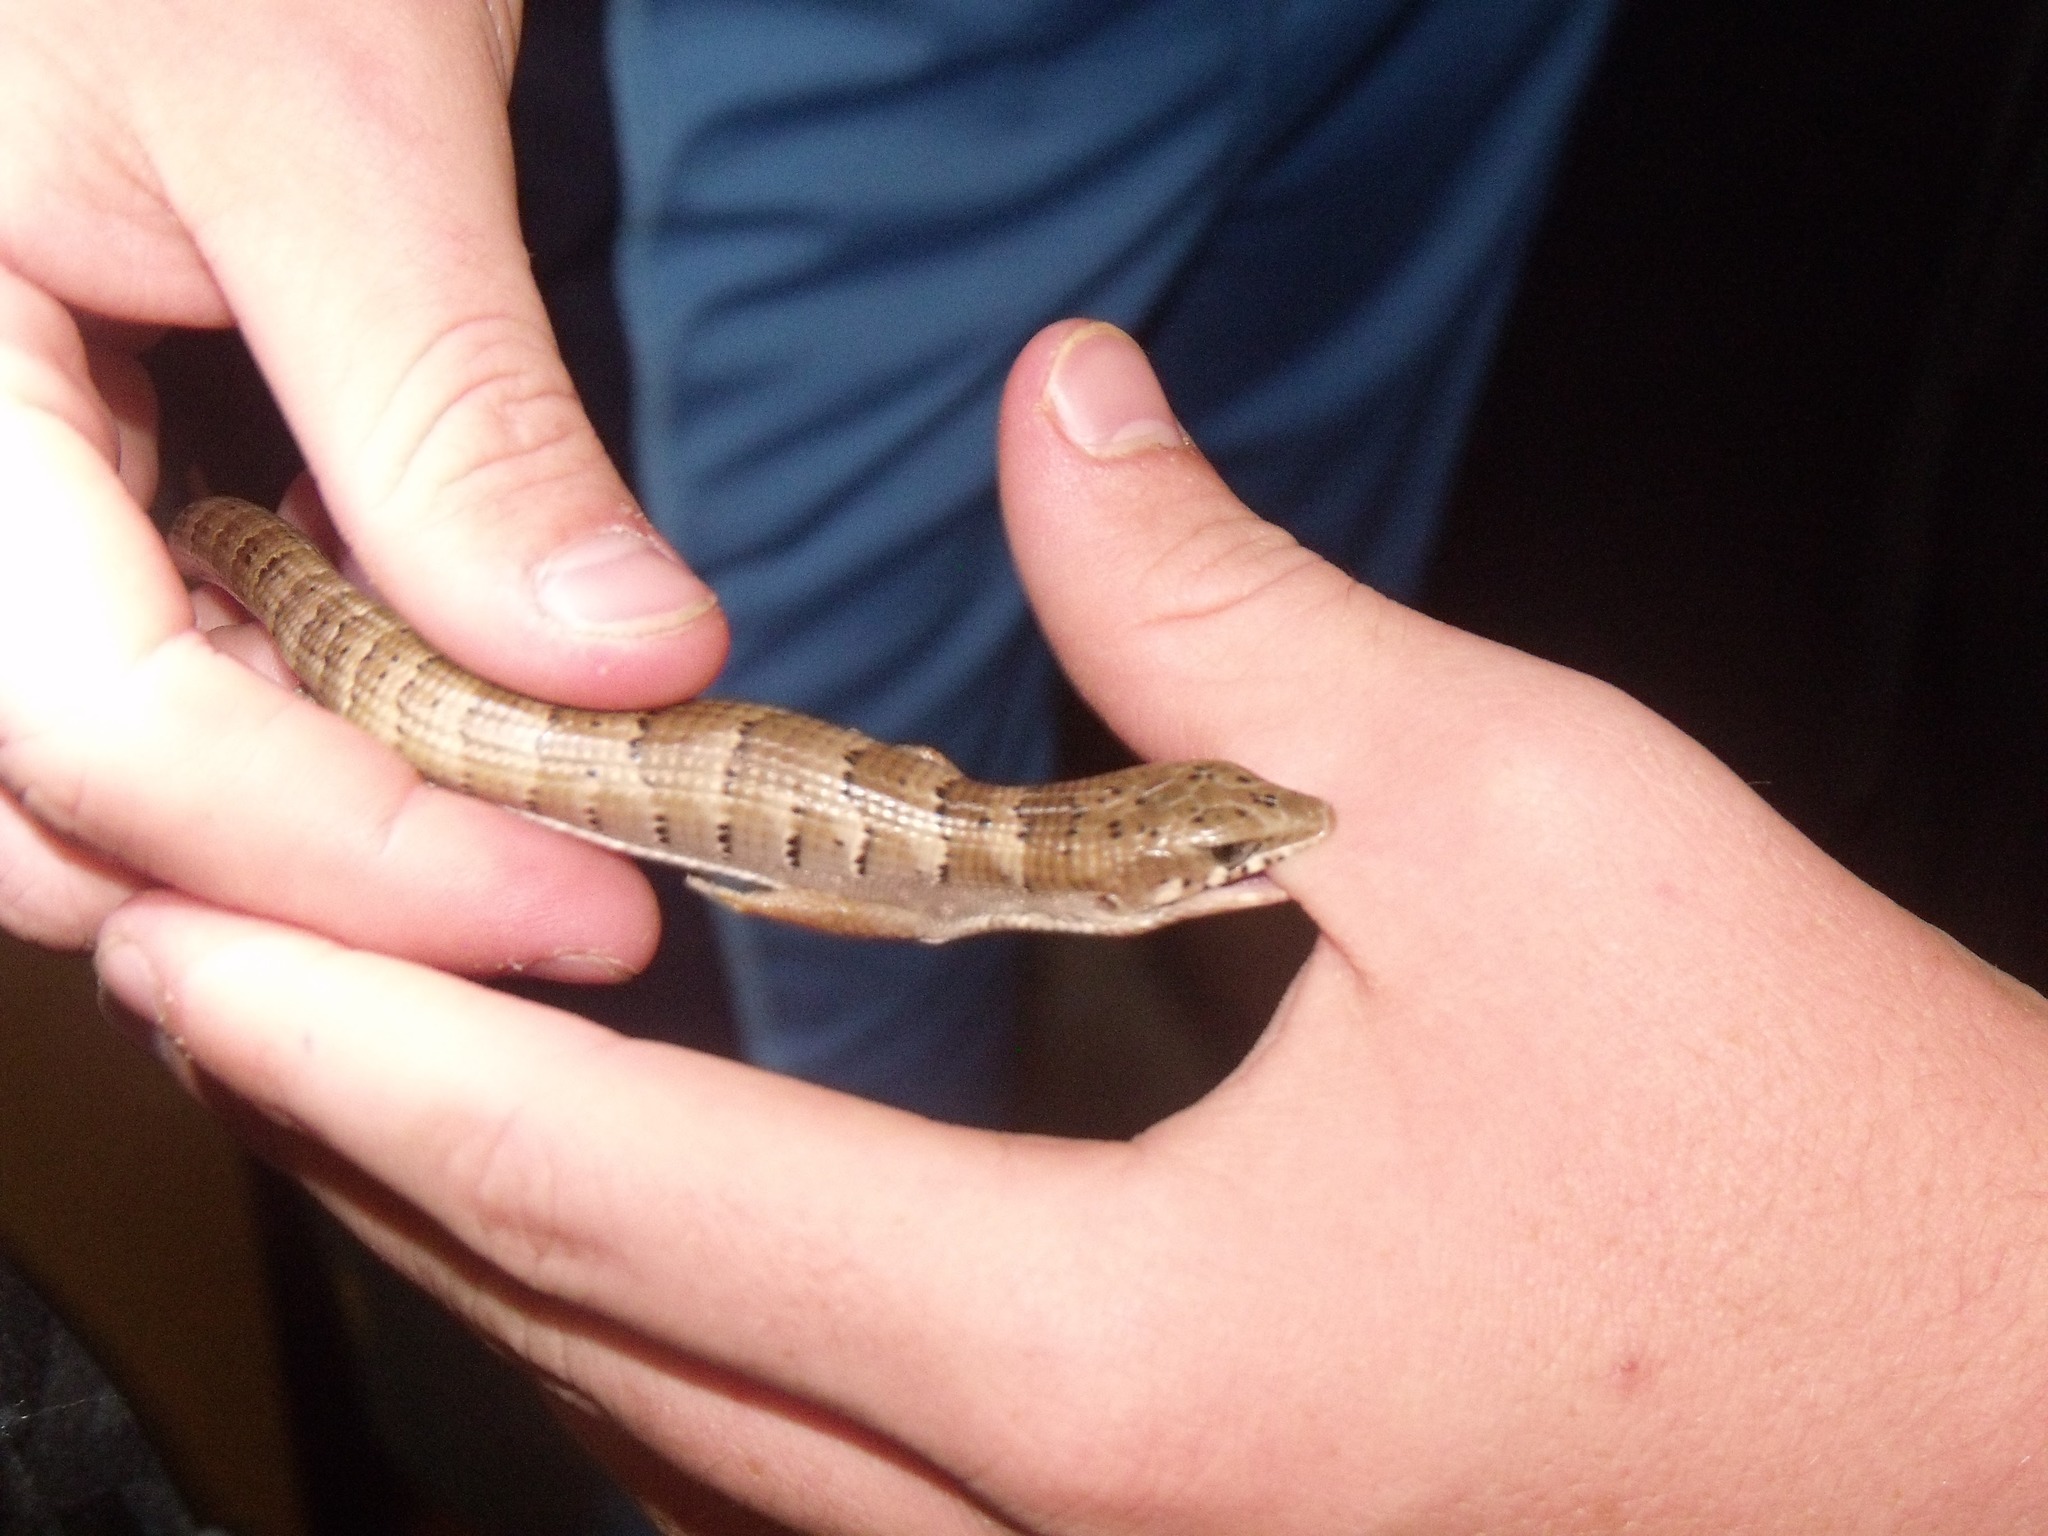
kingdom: Animalia
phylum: Chordata
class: Squamata
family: Anguidae
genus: Elgaria
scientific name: Elgaria kingii
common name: Madrean alligator lizard
